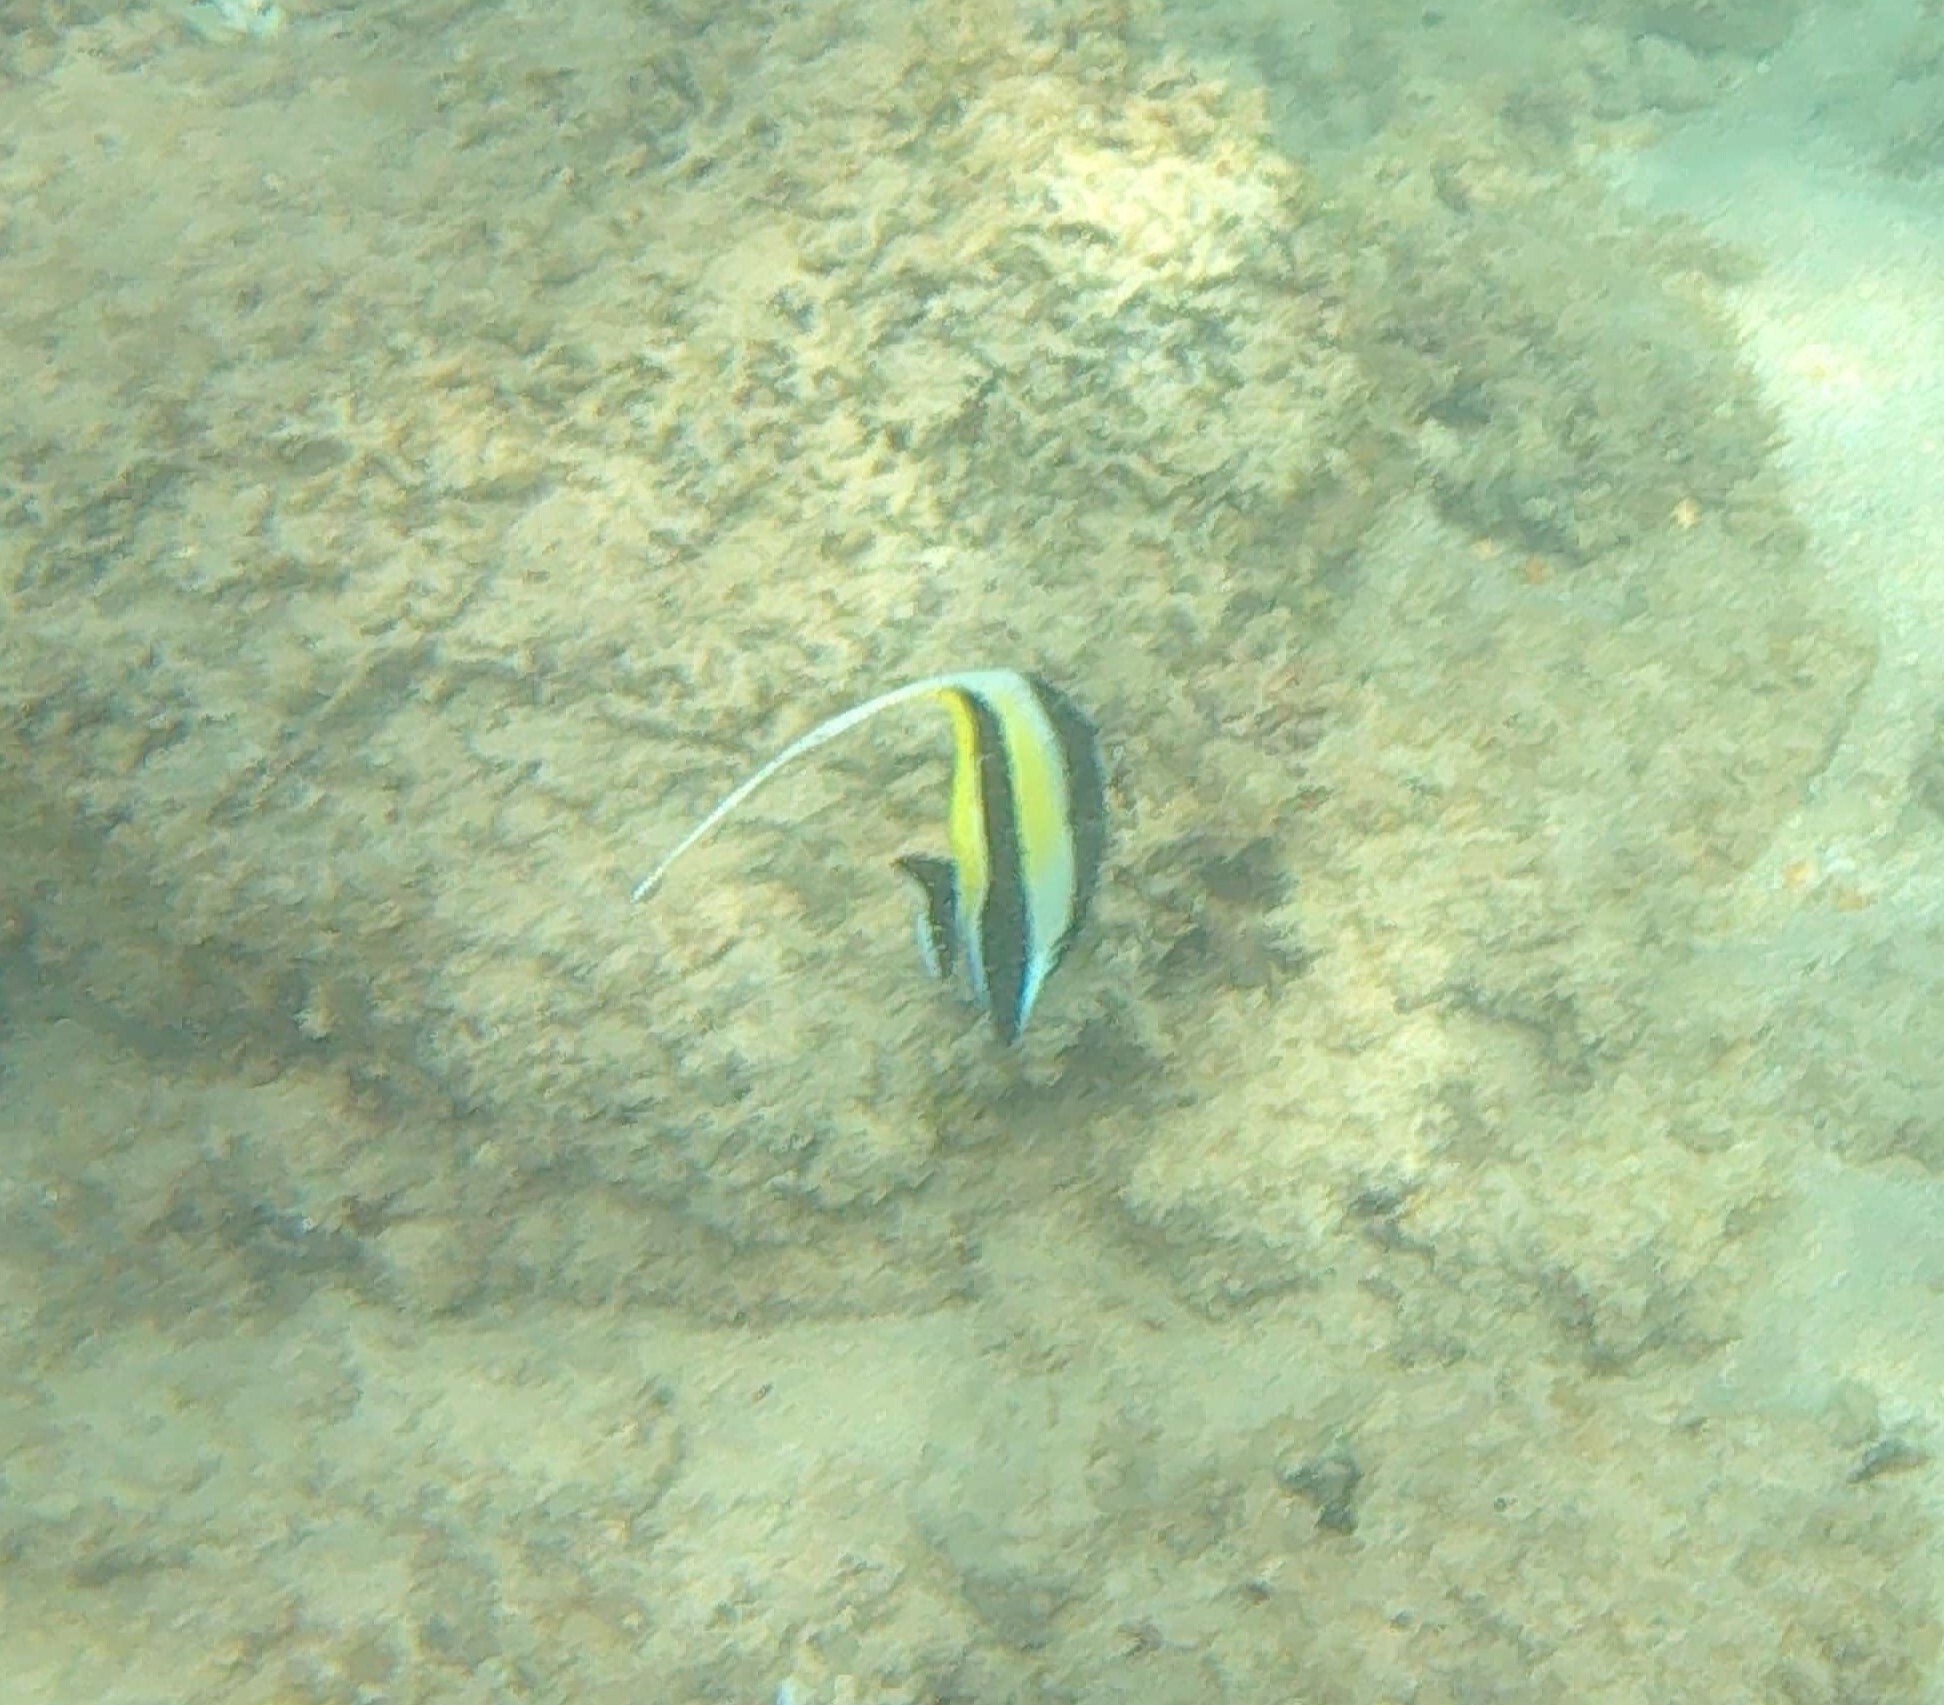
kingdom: Animalia
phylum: Chordata
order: Perciformes
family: Zanclidae
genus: Zanclus
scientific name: Zanclus cornutus
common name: Moorish idol
